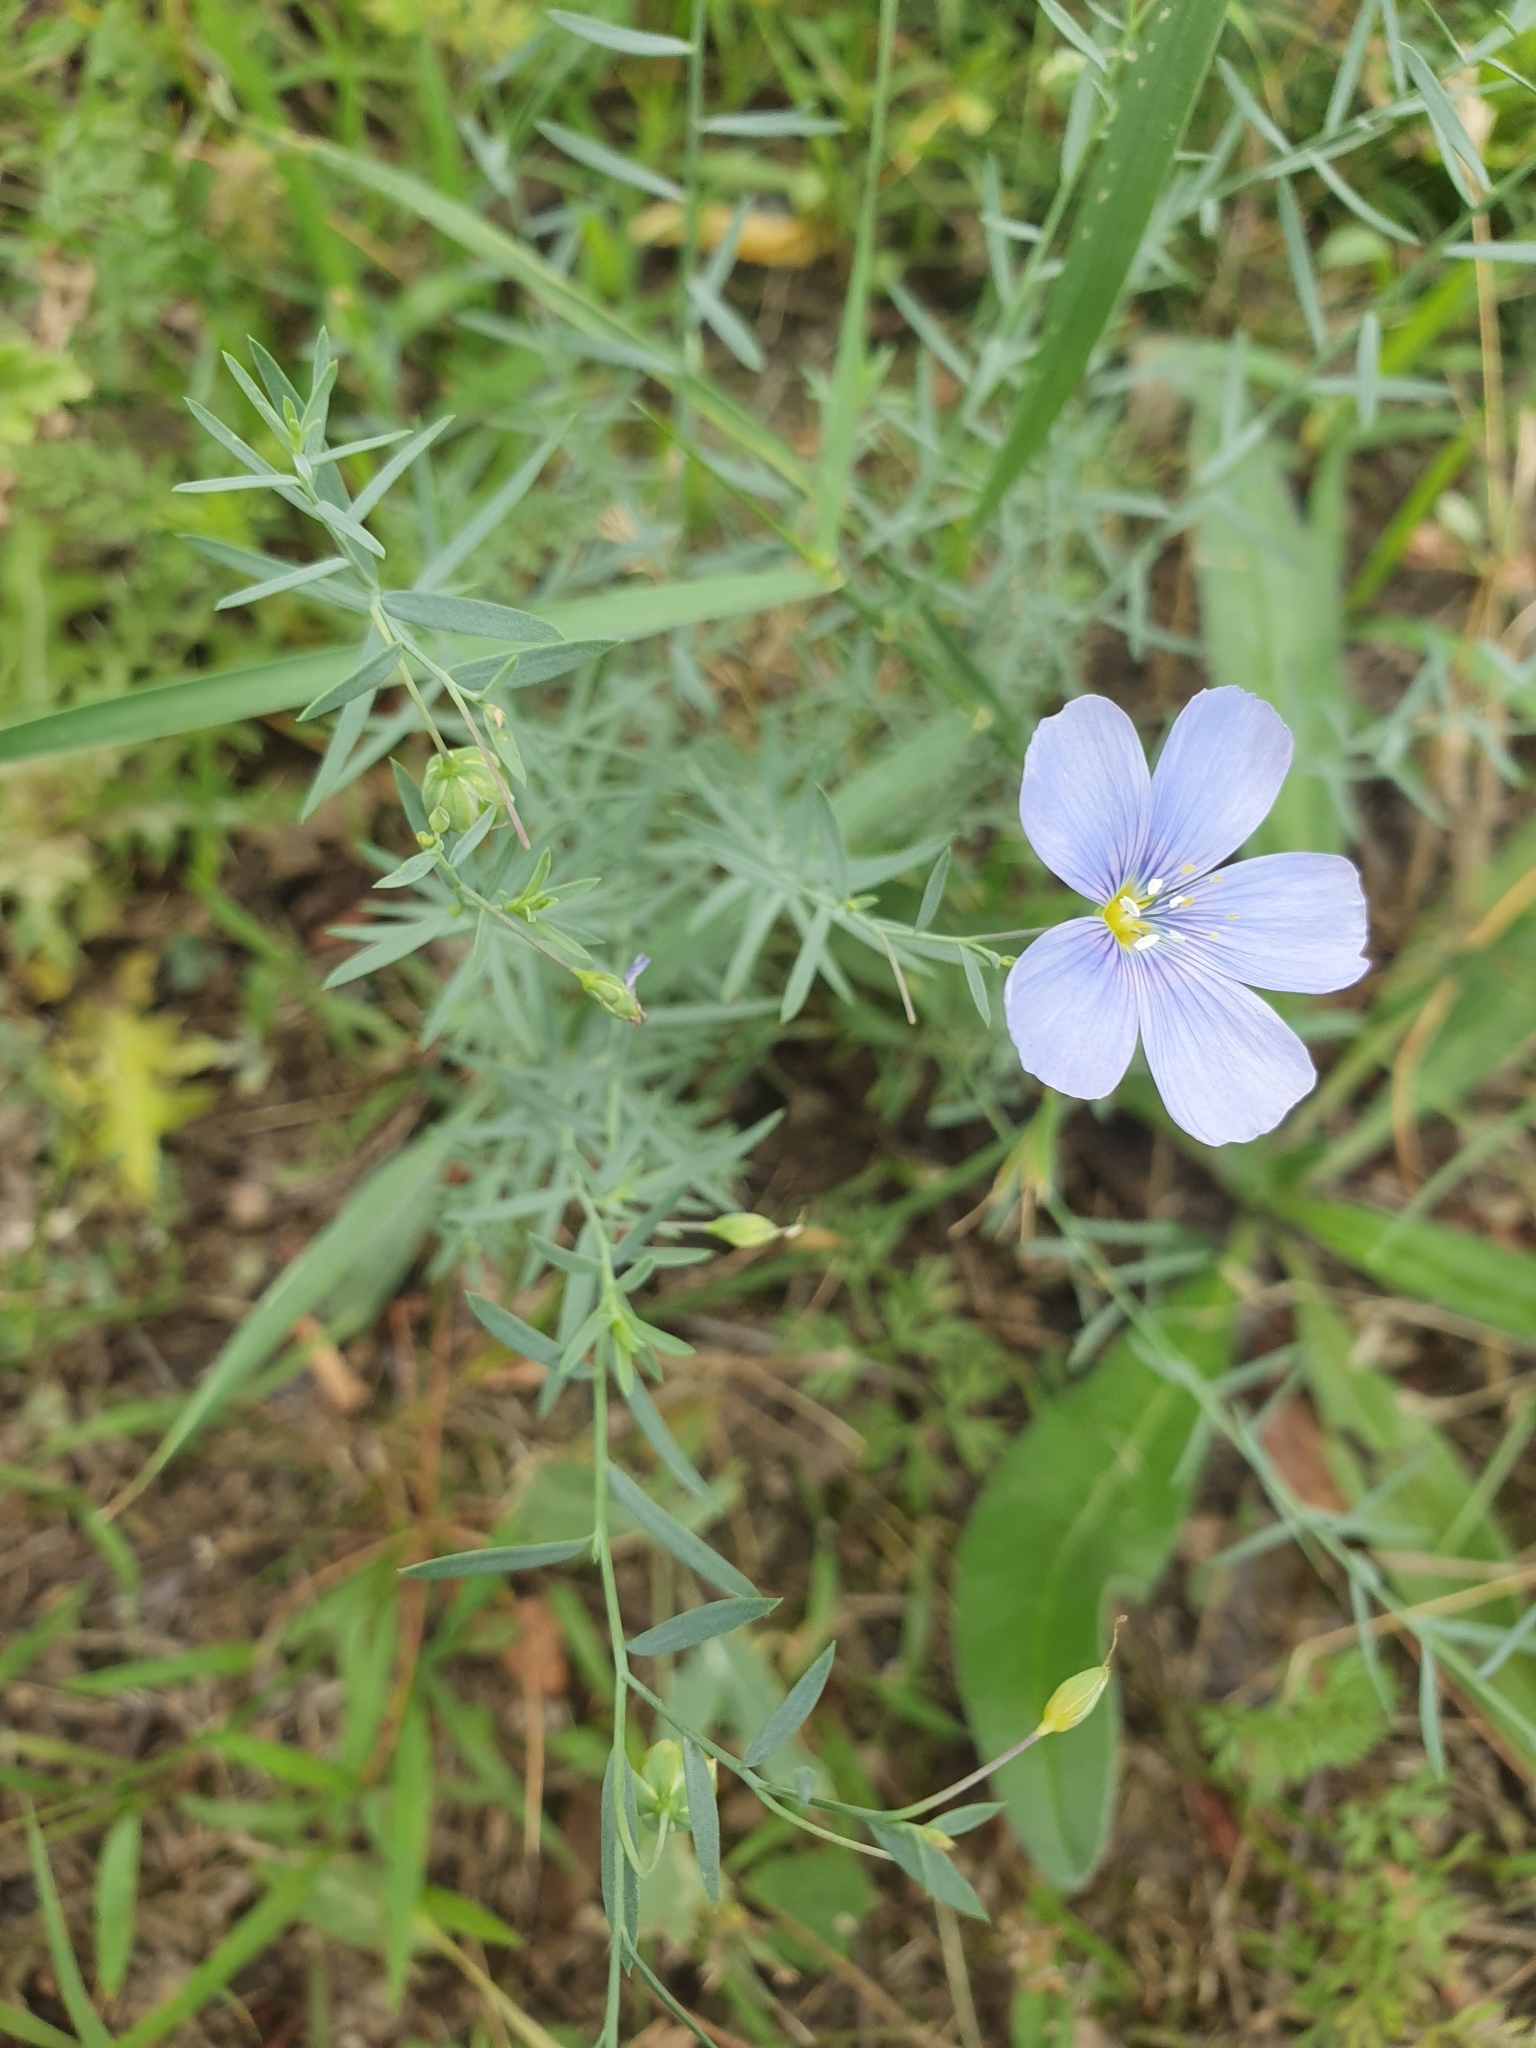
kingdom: Plantae
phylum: Tracheophyta
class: Magnoliopsida
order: Malpighiales
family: Linaceae
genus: Linum
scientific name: Linum austriacum
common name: Austrian flax
